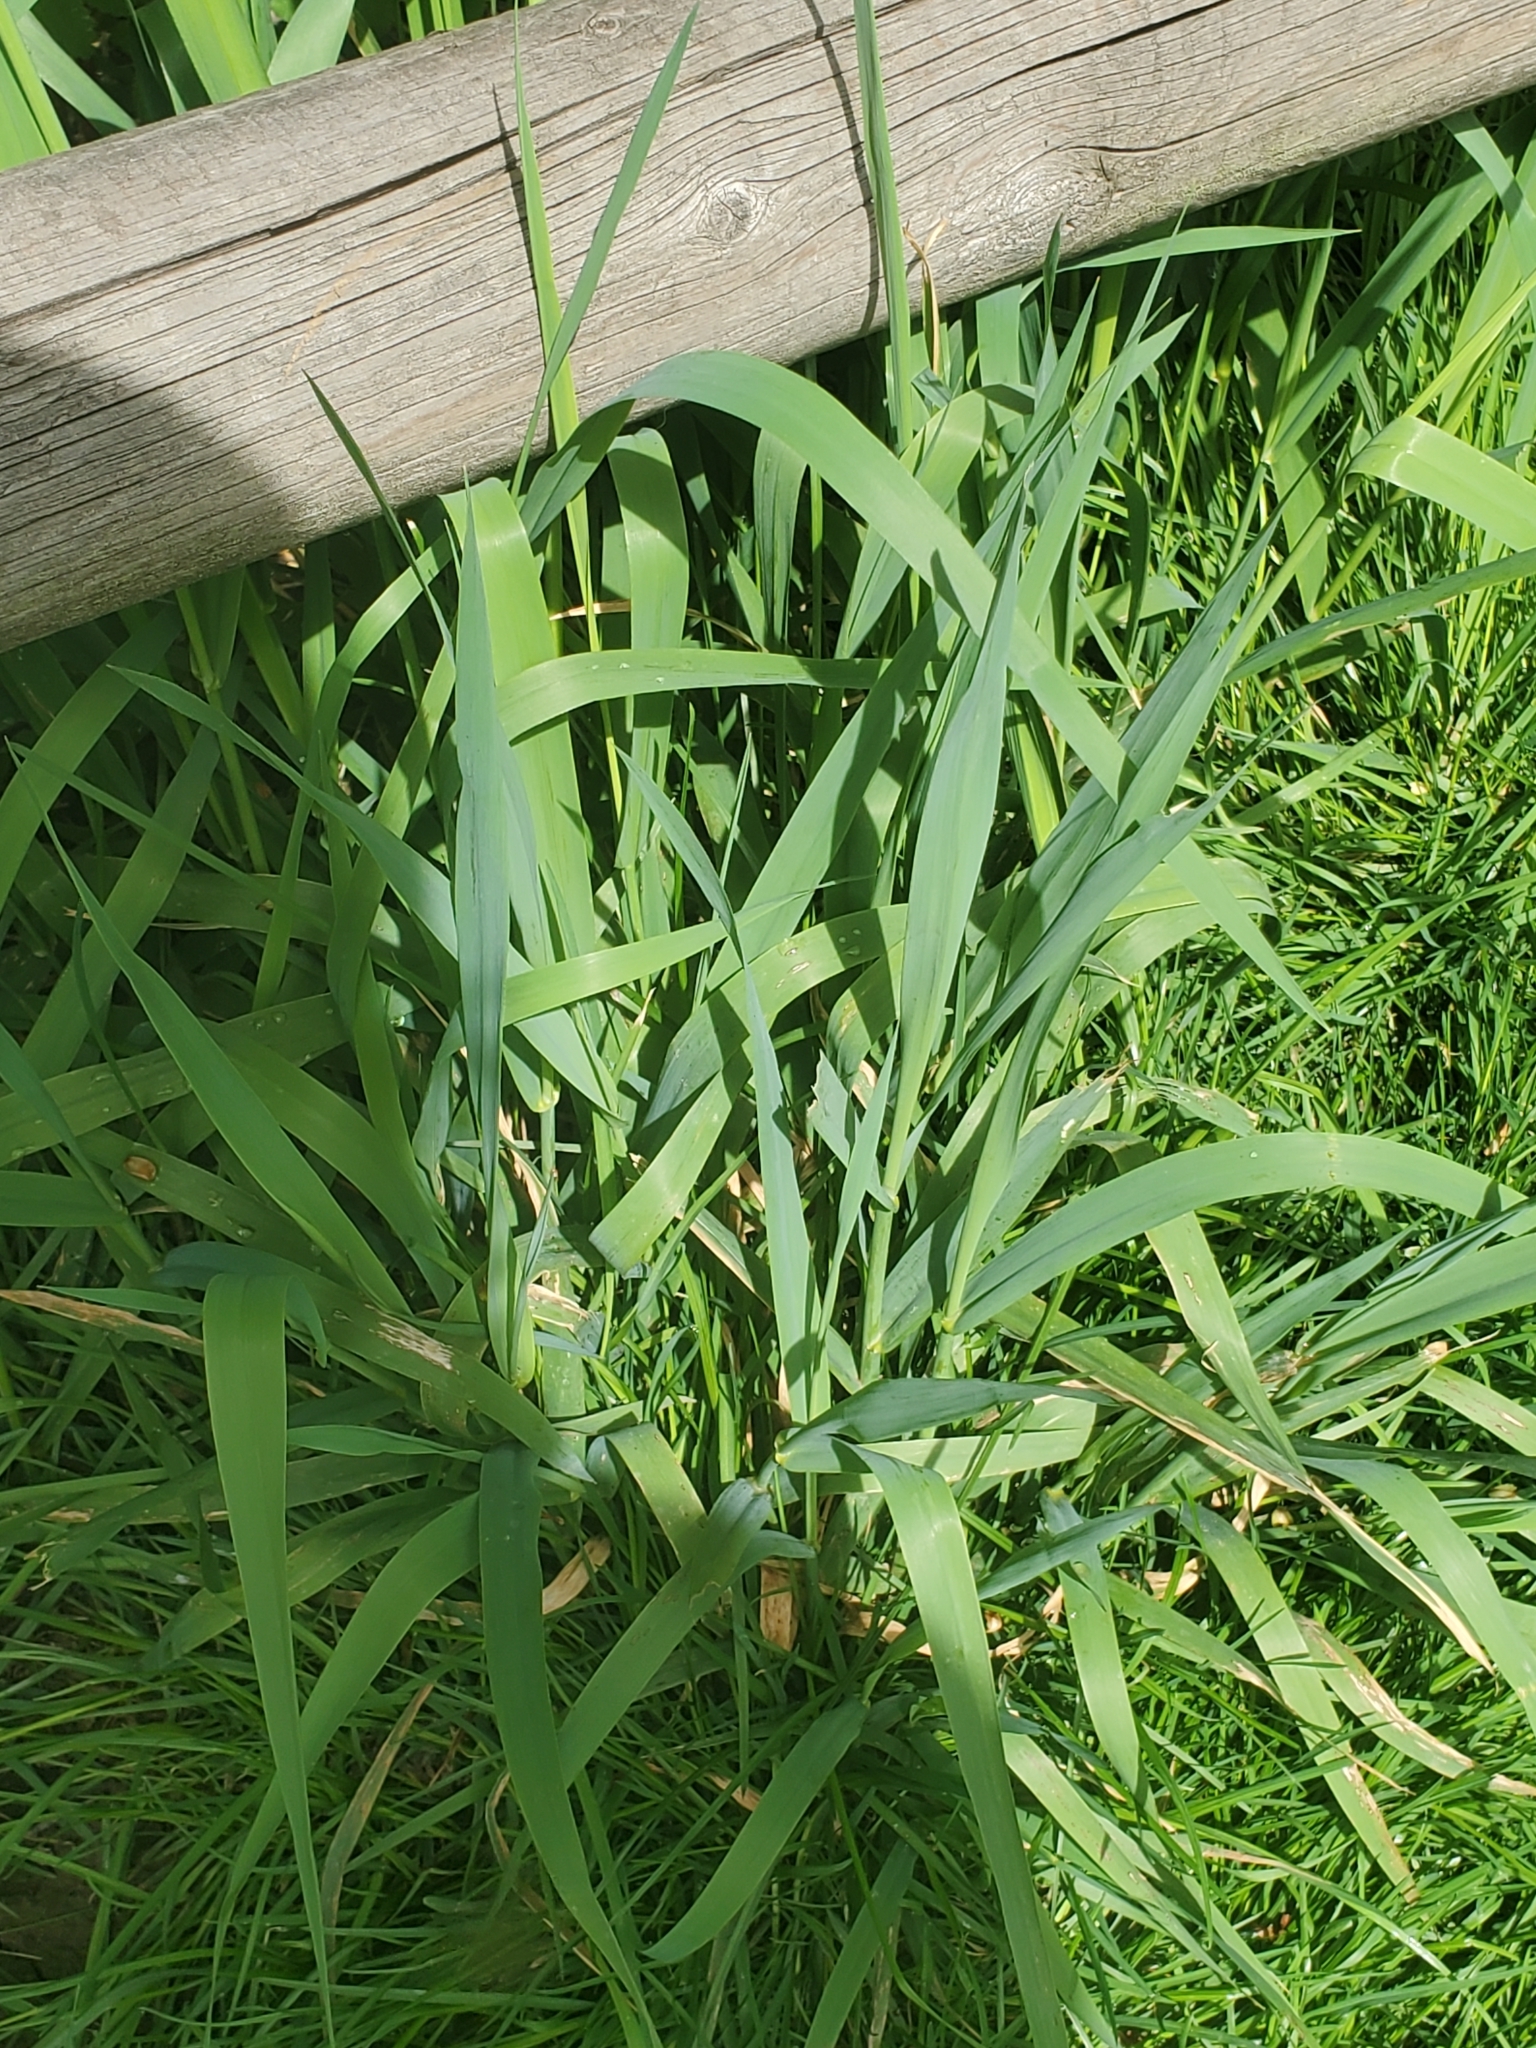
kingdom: Plantae
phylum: Tracheophyta
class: Liliopsida
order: Poales
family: Poaceae
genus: Phalaris
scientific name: Phalaris arundinacea
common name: Reed canary-grass
